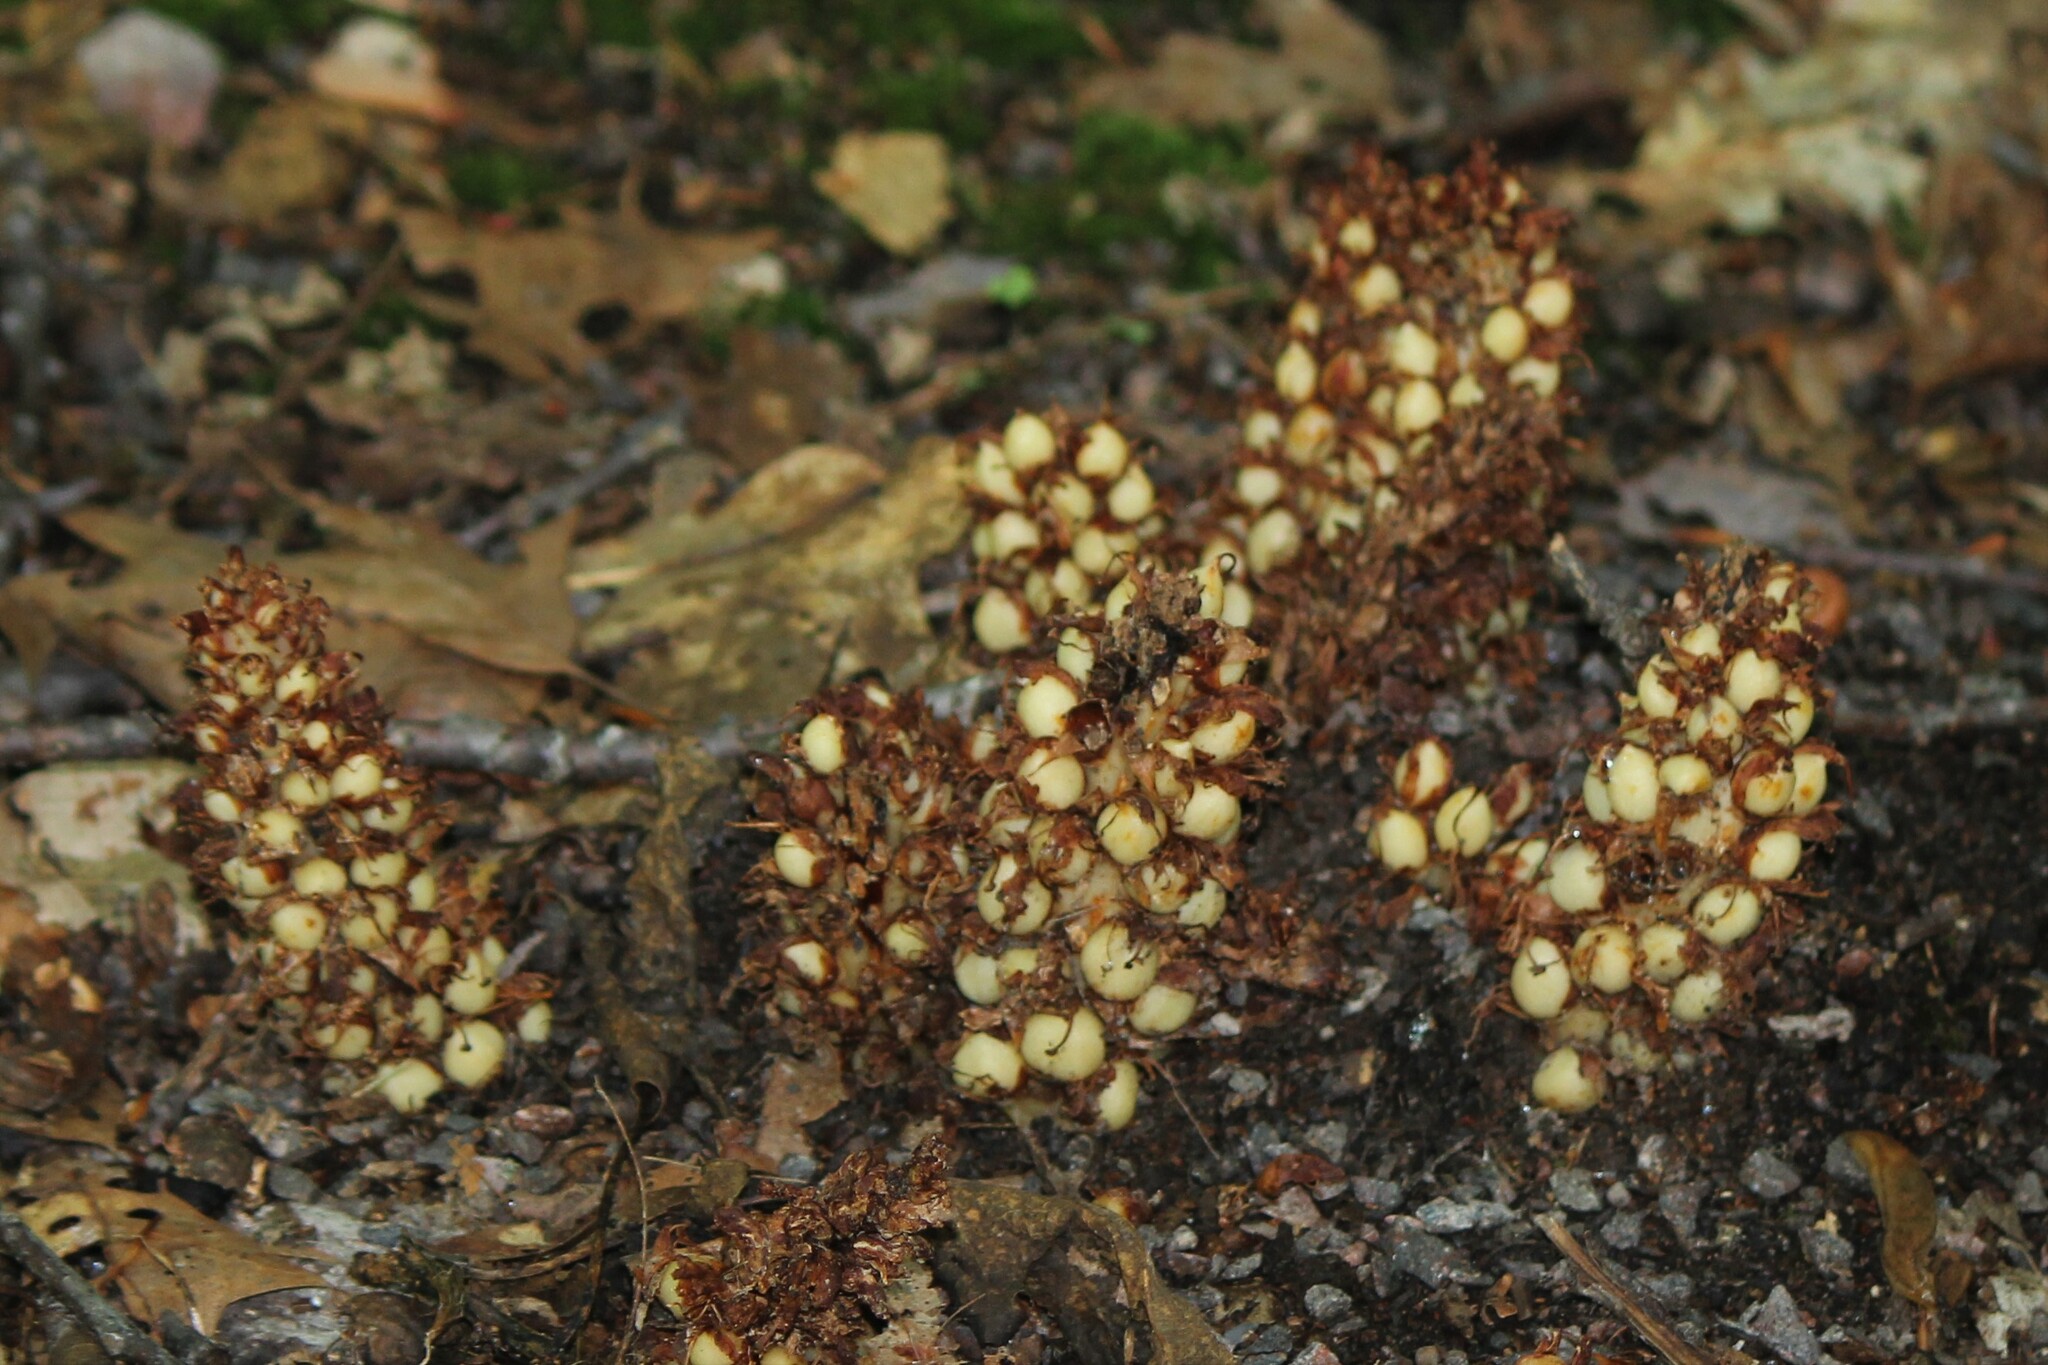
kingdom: Plantae
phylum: Tracheophyta
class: Magnoliopsida
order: Lamiales
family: Orobanchaceae
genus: Conopholis
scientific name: Conopholis americana
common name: American cancer-root
